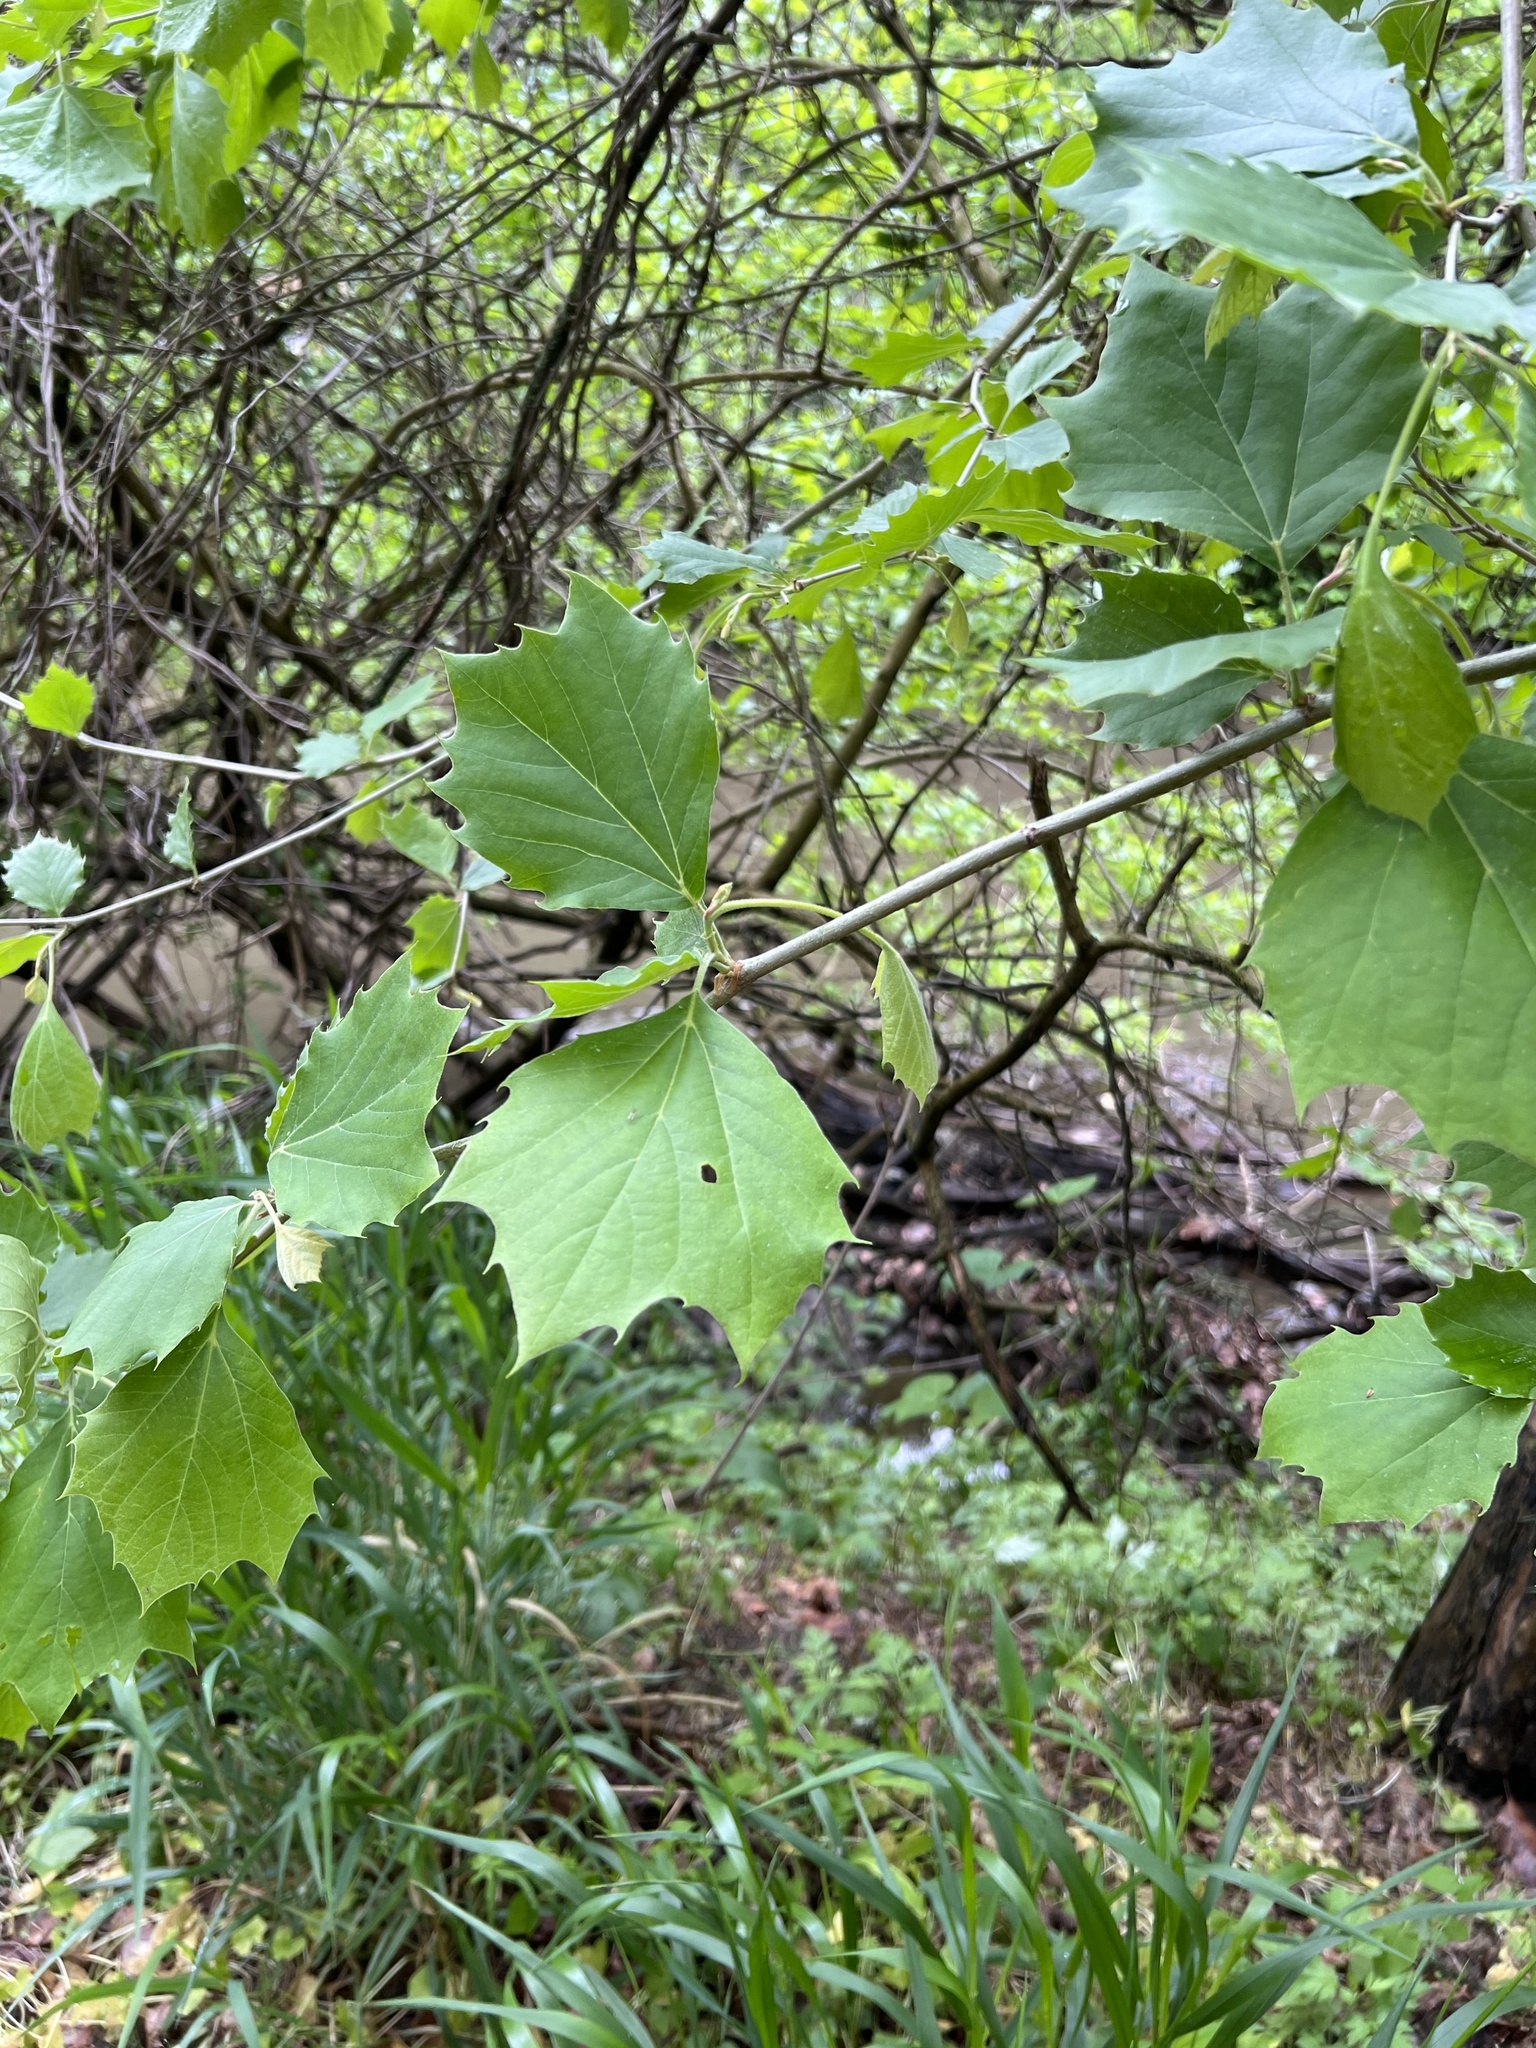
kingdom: Plantae
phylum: Tracheophyta
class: Magnoliopsida
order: Proteales
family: Platanaceae
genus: Platanus
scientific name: Platanus occidentalis
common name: American sycamore
